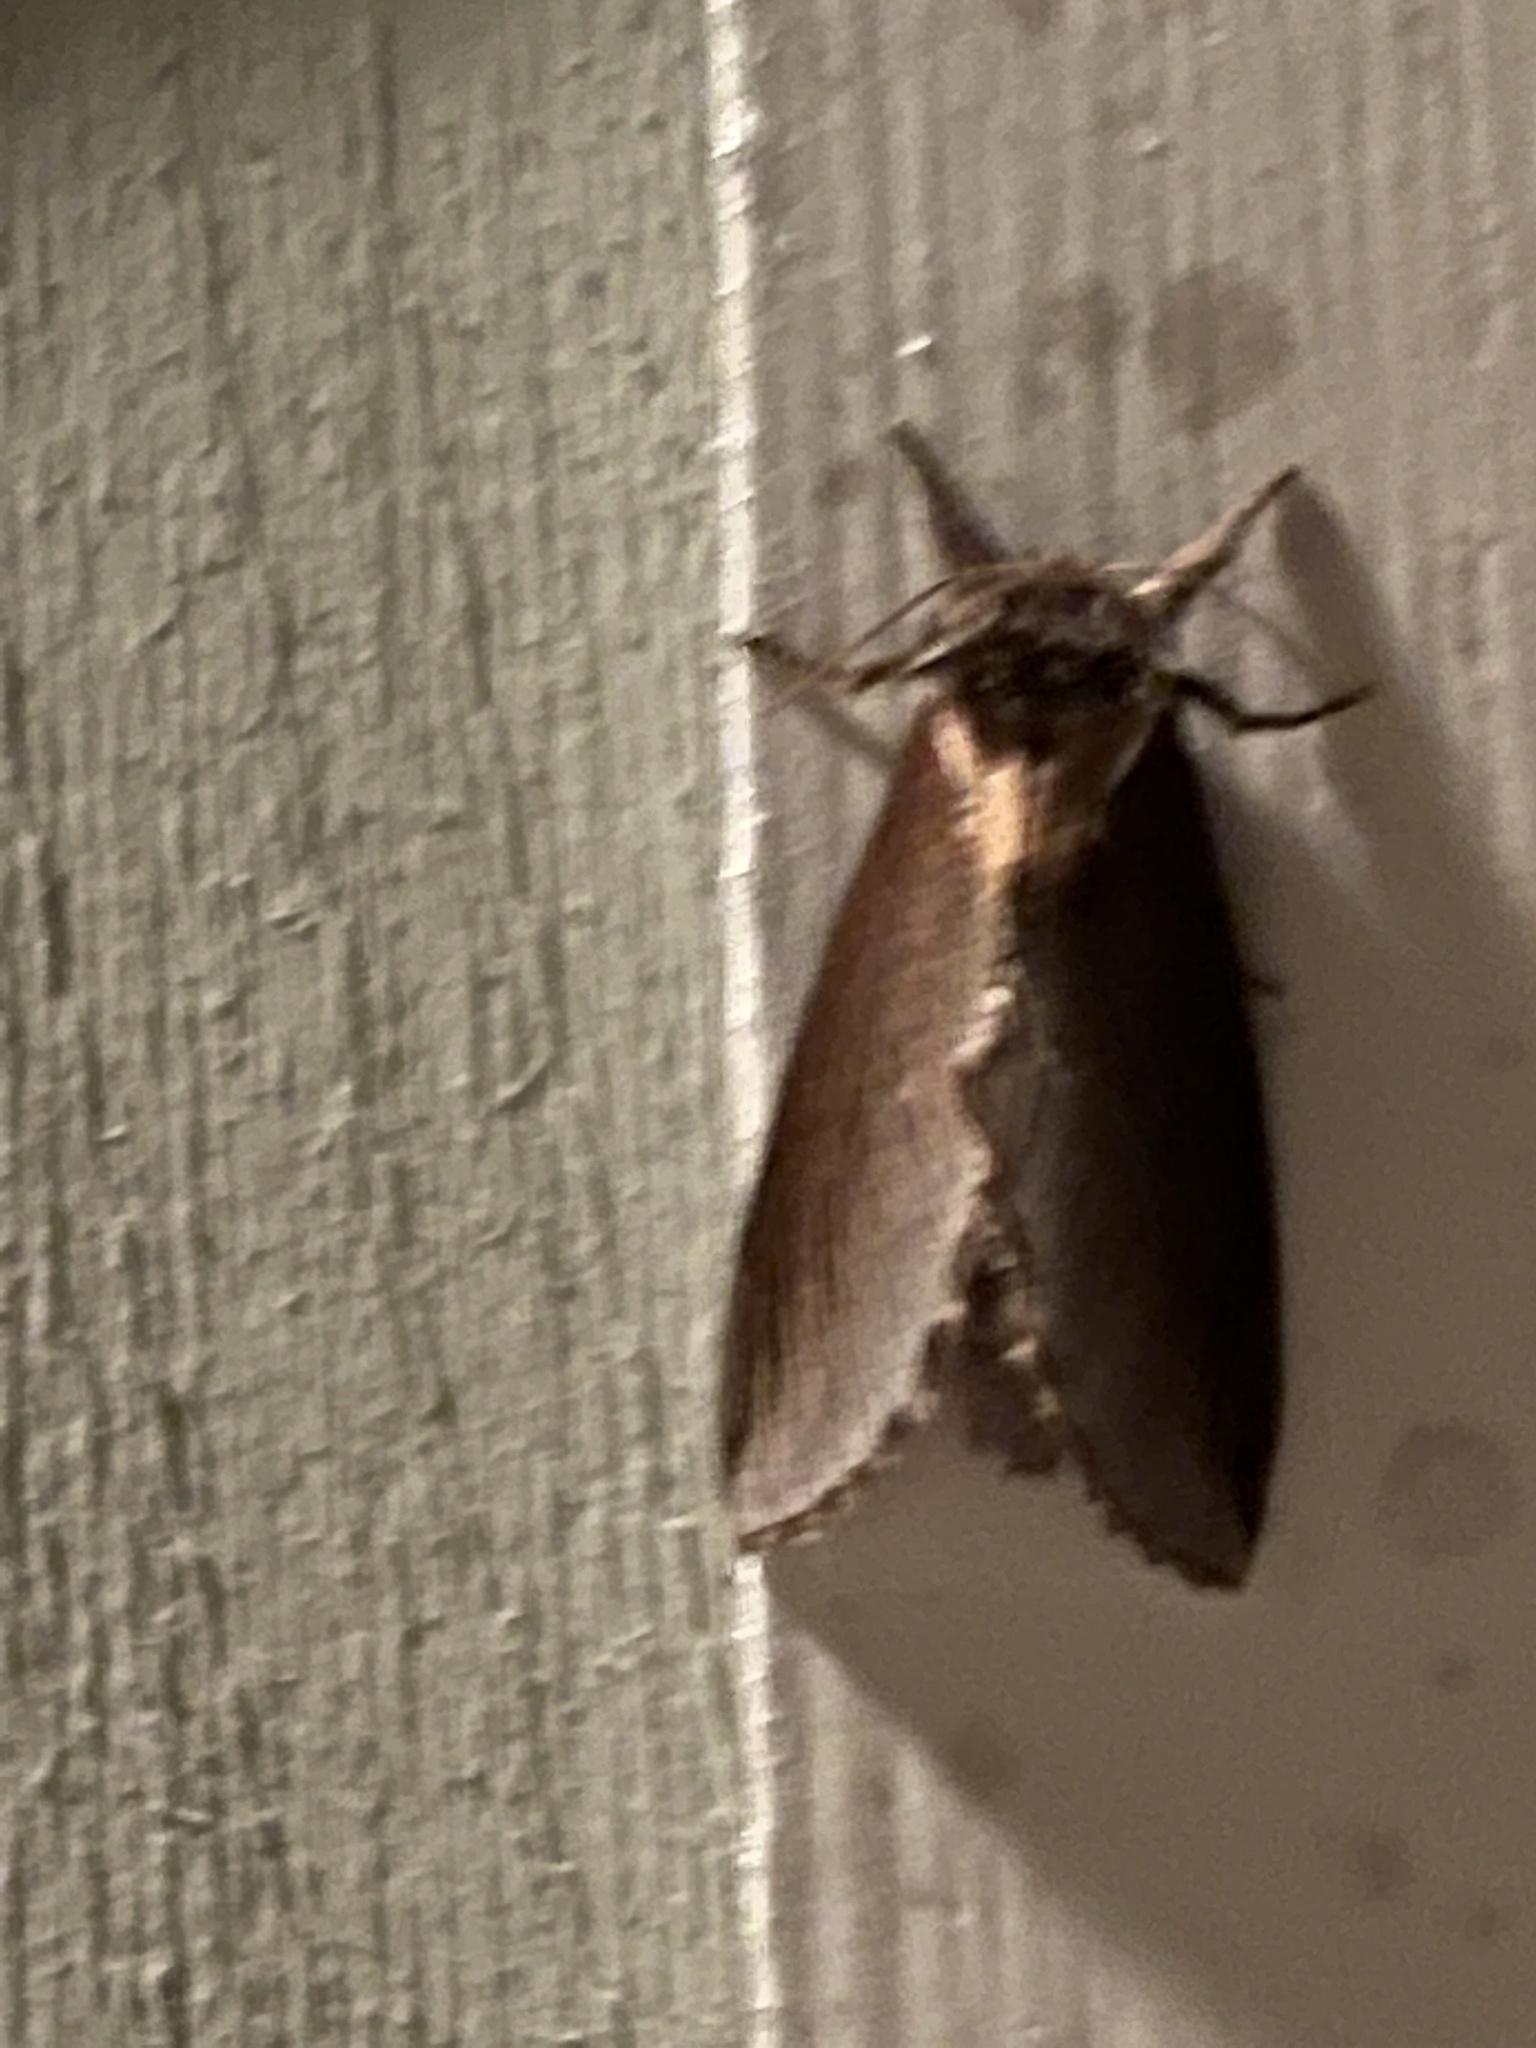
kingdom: Animalia
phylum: Arthropoda
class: Insecta
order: Lepidoptera
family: Notodontidae
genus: Pheosidea
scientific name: Pheosidea elegans
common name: Elegant prominent
